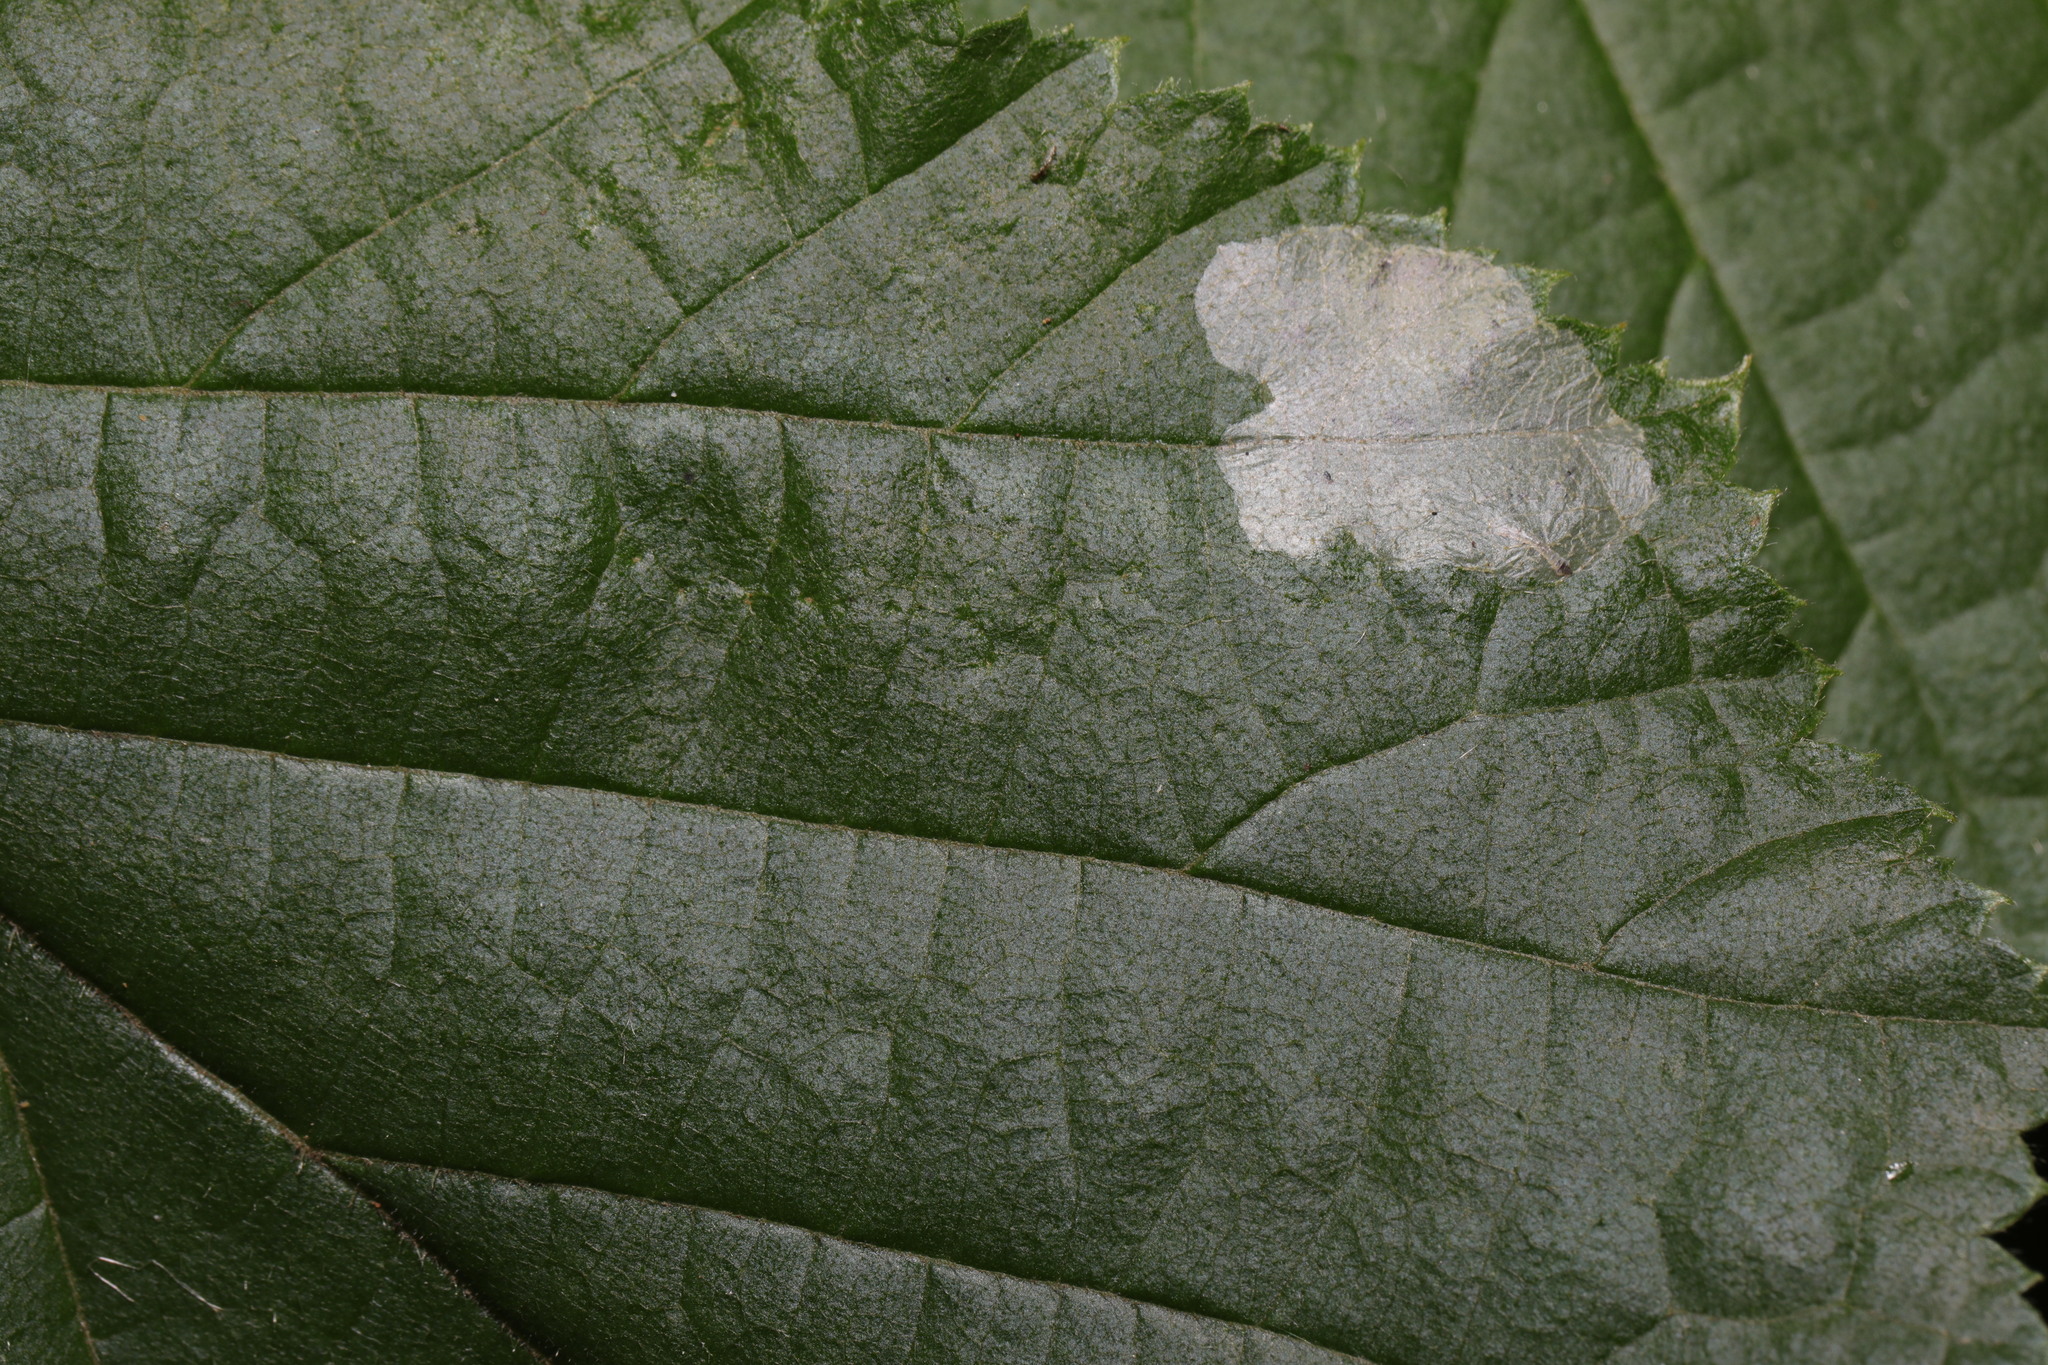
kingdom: Animalia
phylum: Arthropoda
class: Insecta
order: Lepidoptera
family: Gracillariidae
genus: Phyllonorycter
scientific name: Phyllonorycter coryli
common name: Nut-leaf blister moth
